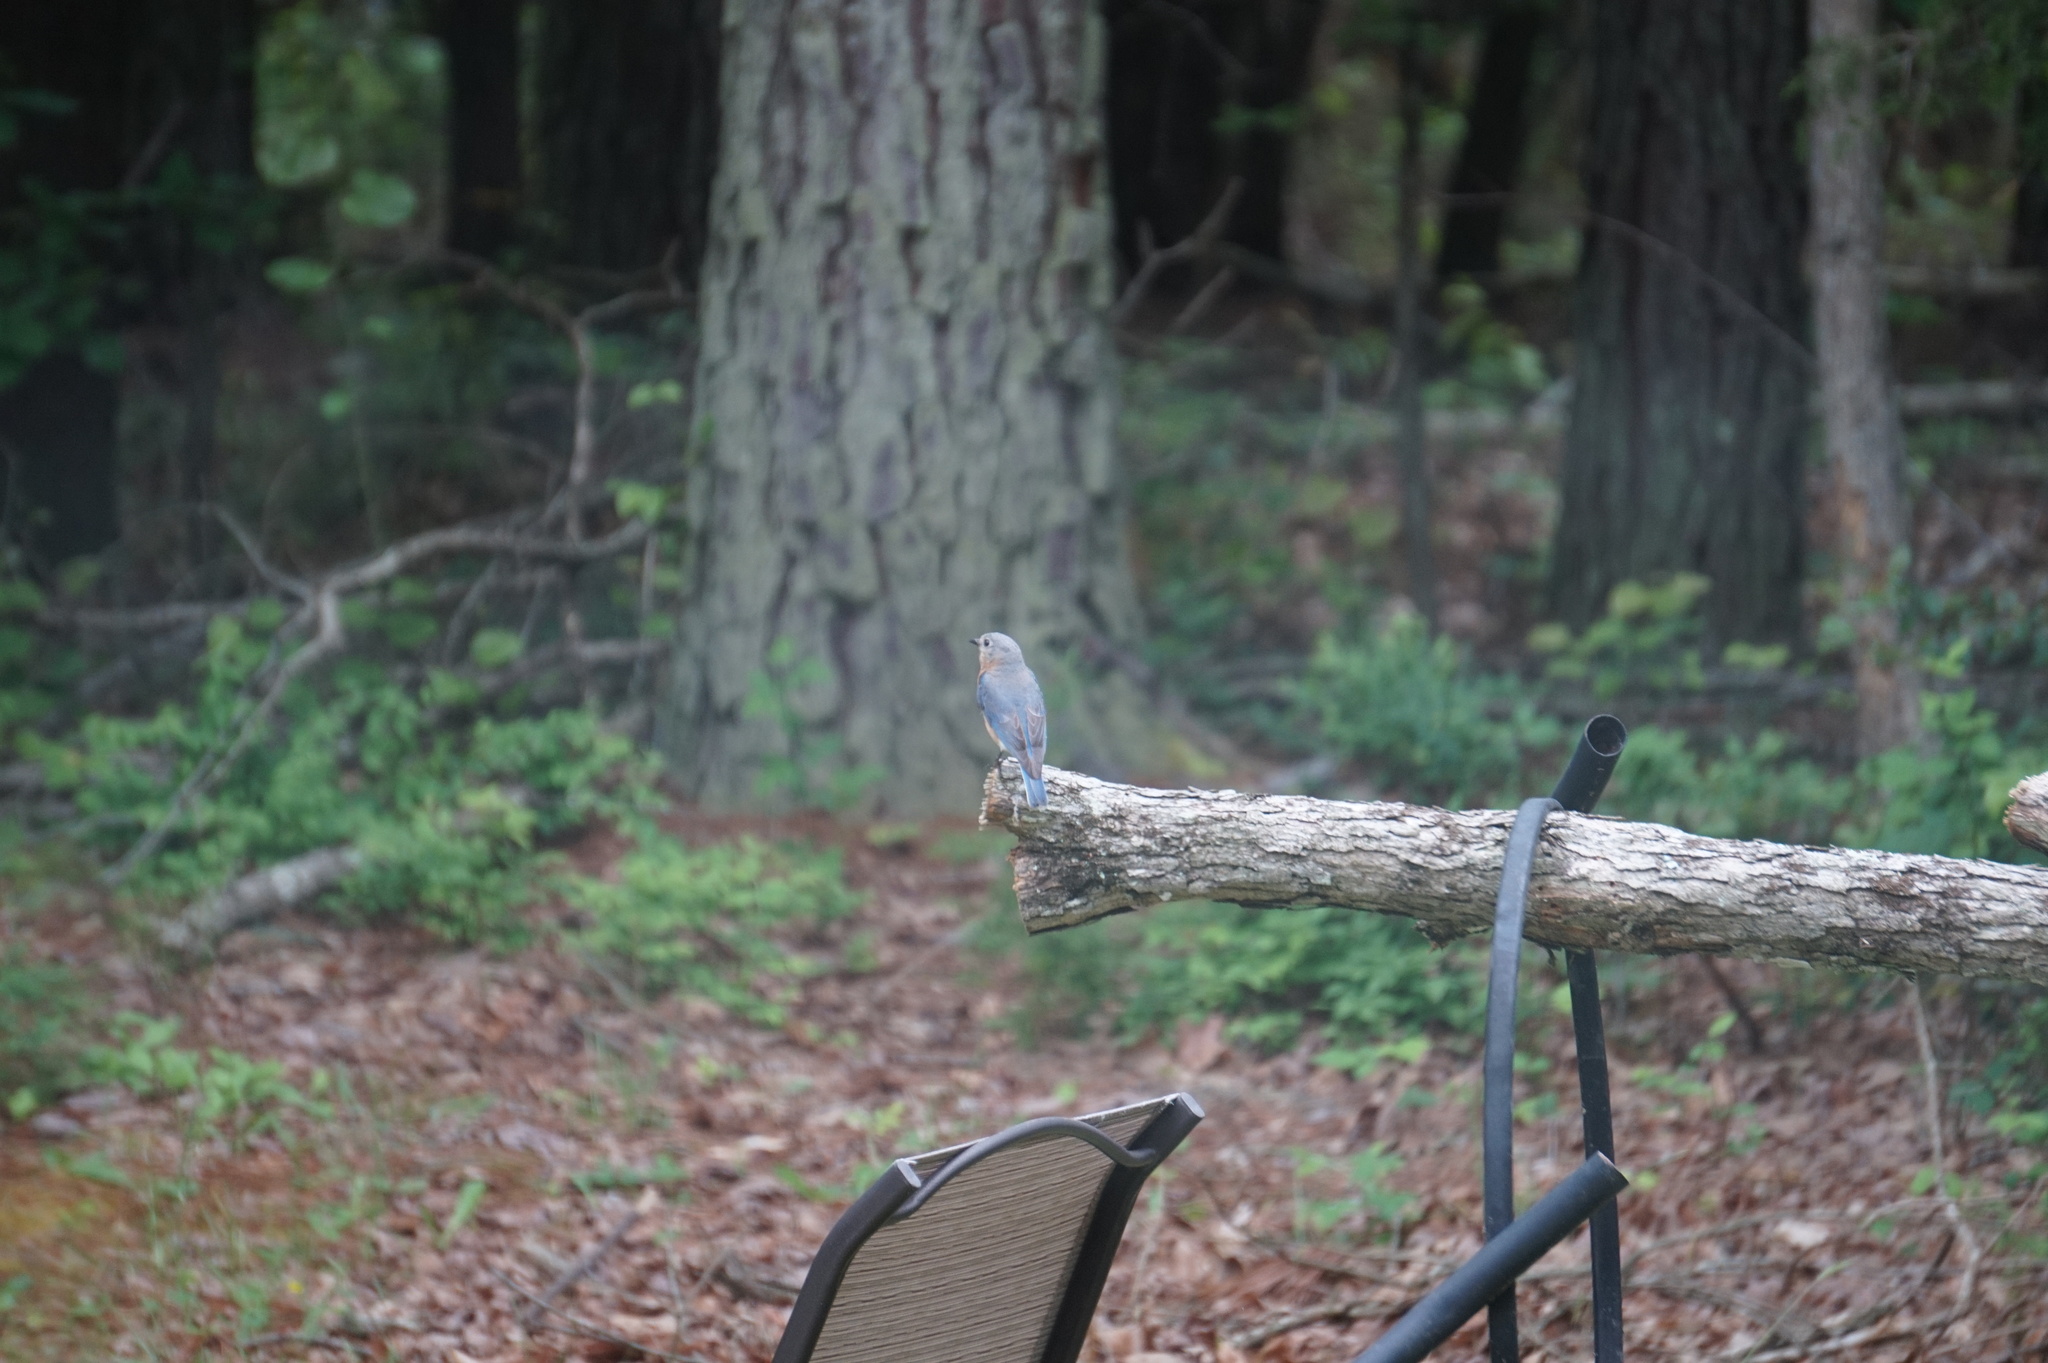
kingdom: Animalia
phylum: Chordata
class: Aves
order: Passeriformes
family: Turdidae
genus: Sialia
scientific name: Sialia sialis
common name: Eastern bluebird
